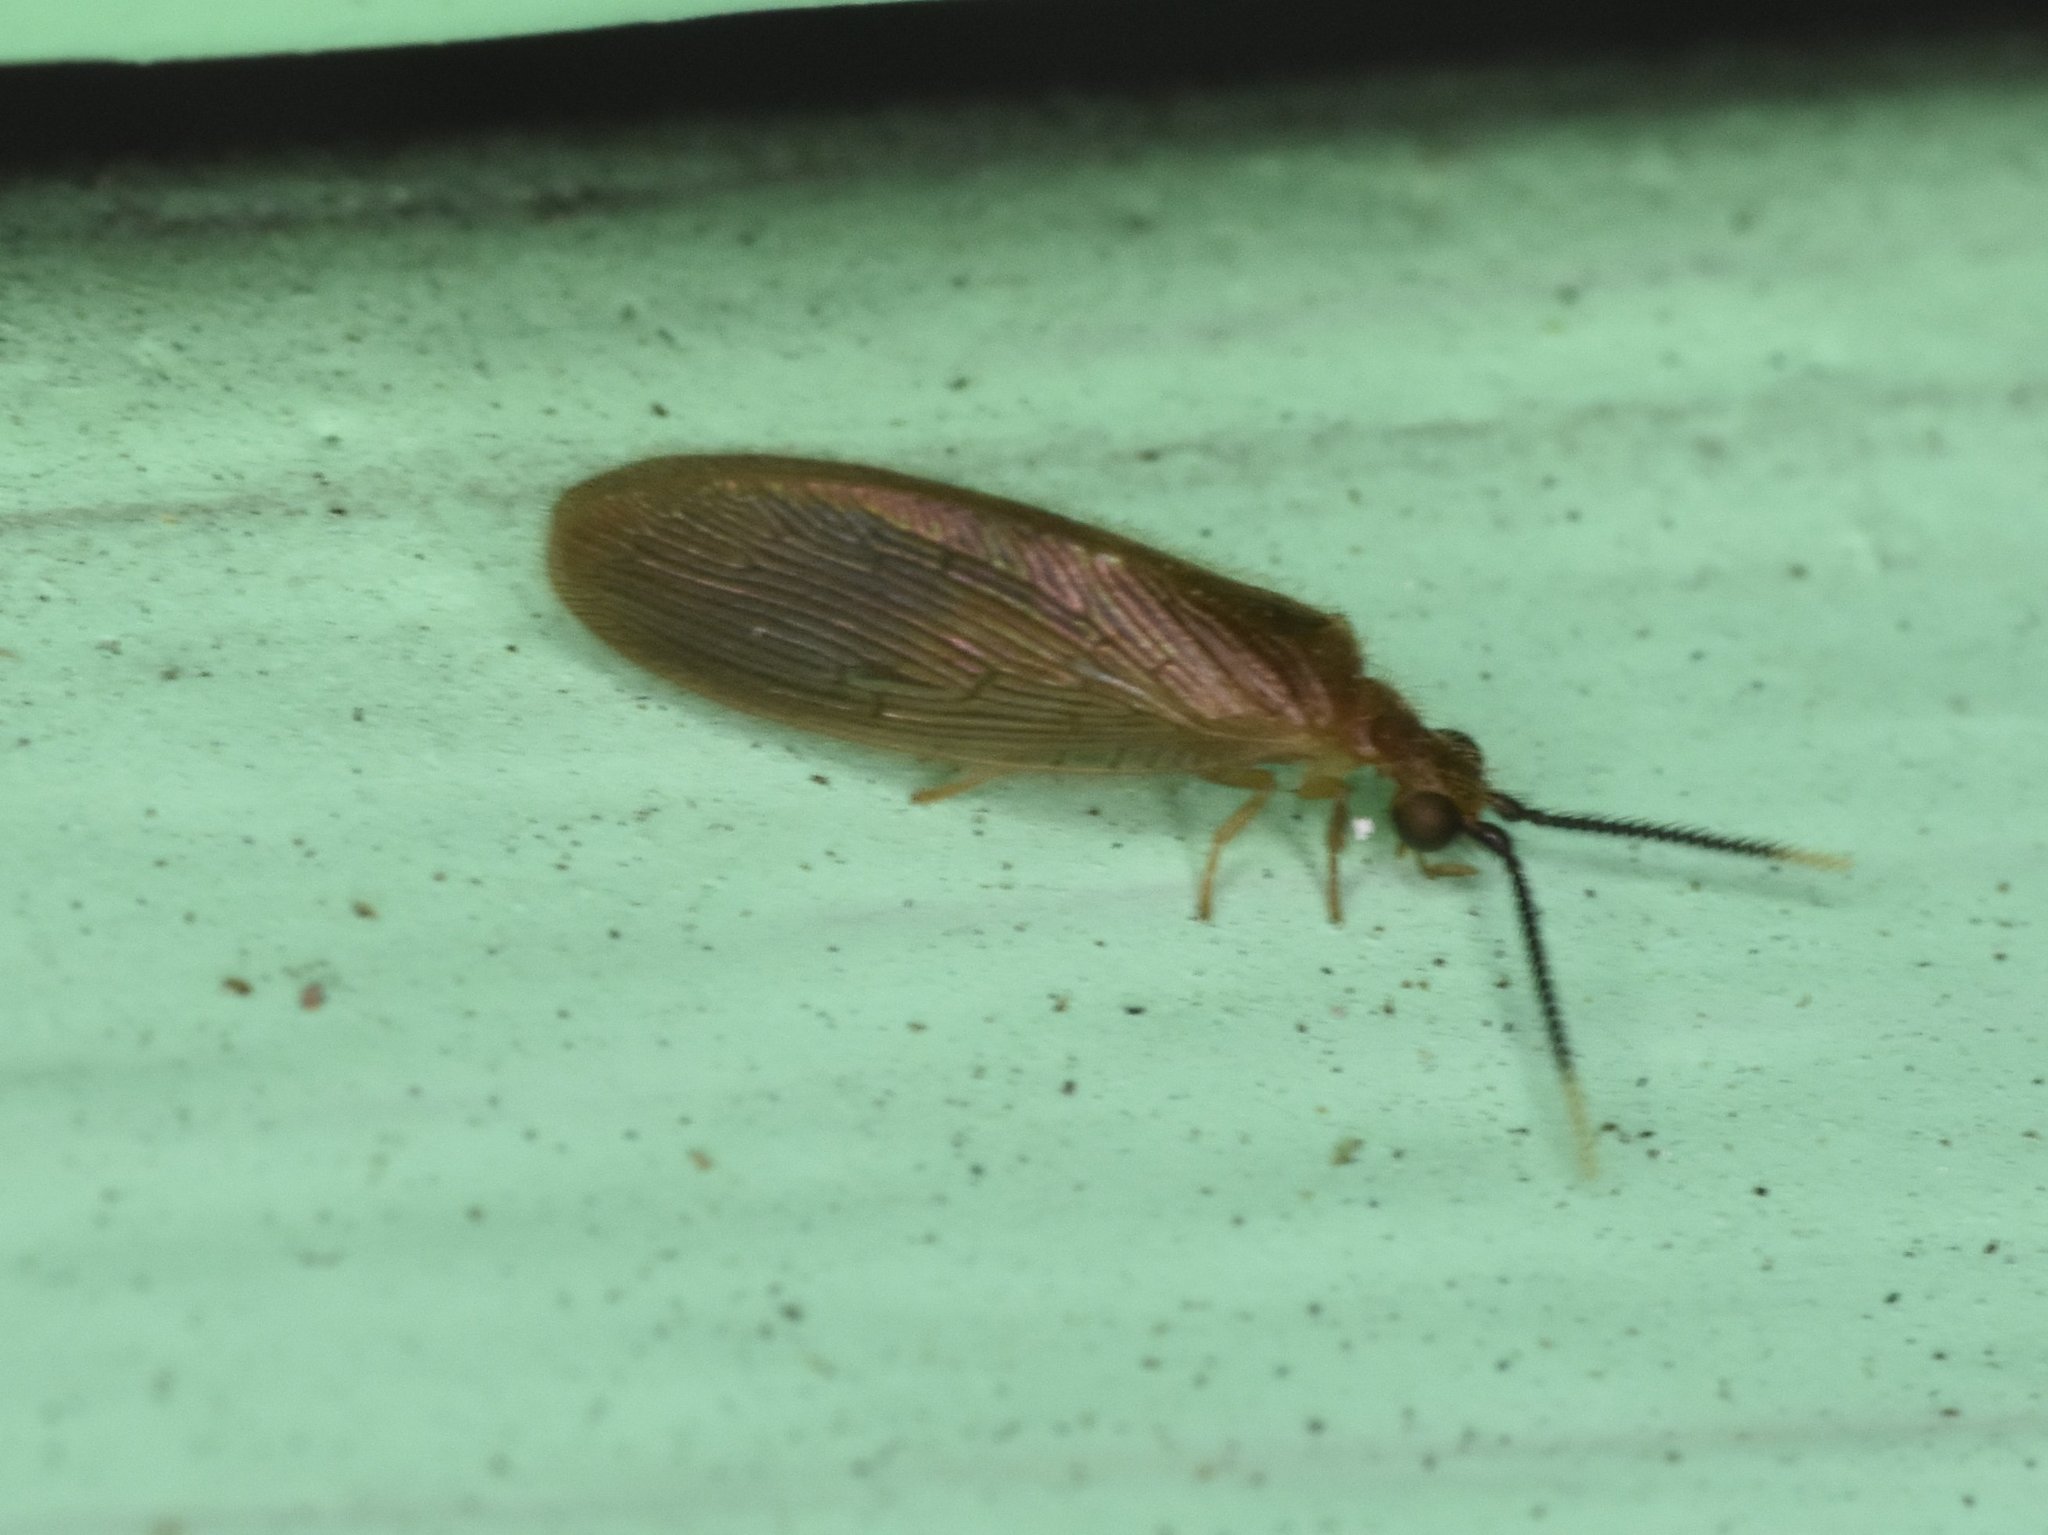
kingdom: Animalia
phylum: Arthropoda
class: Insecta
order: Neuroptera
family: Sisyridae
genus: Sisyra
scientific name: Sisyra apicalis
